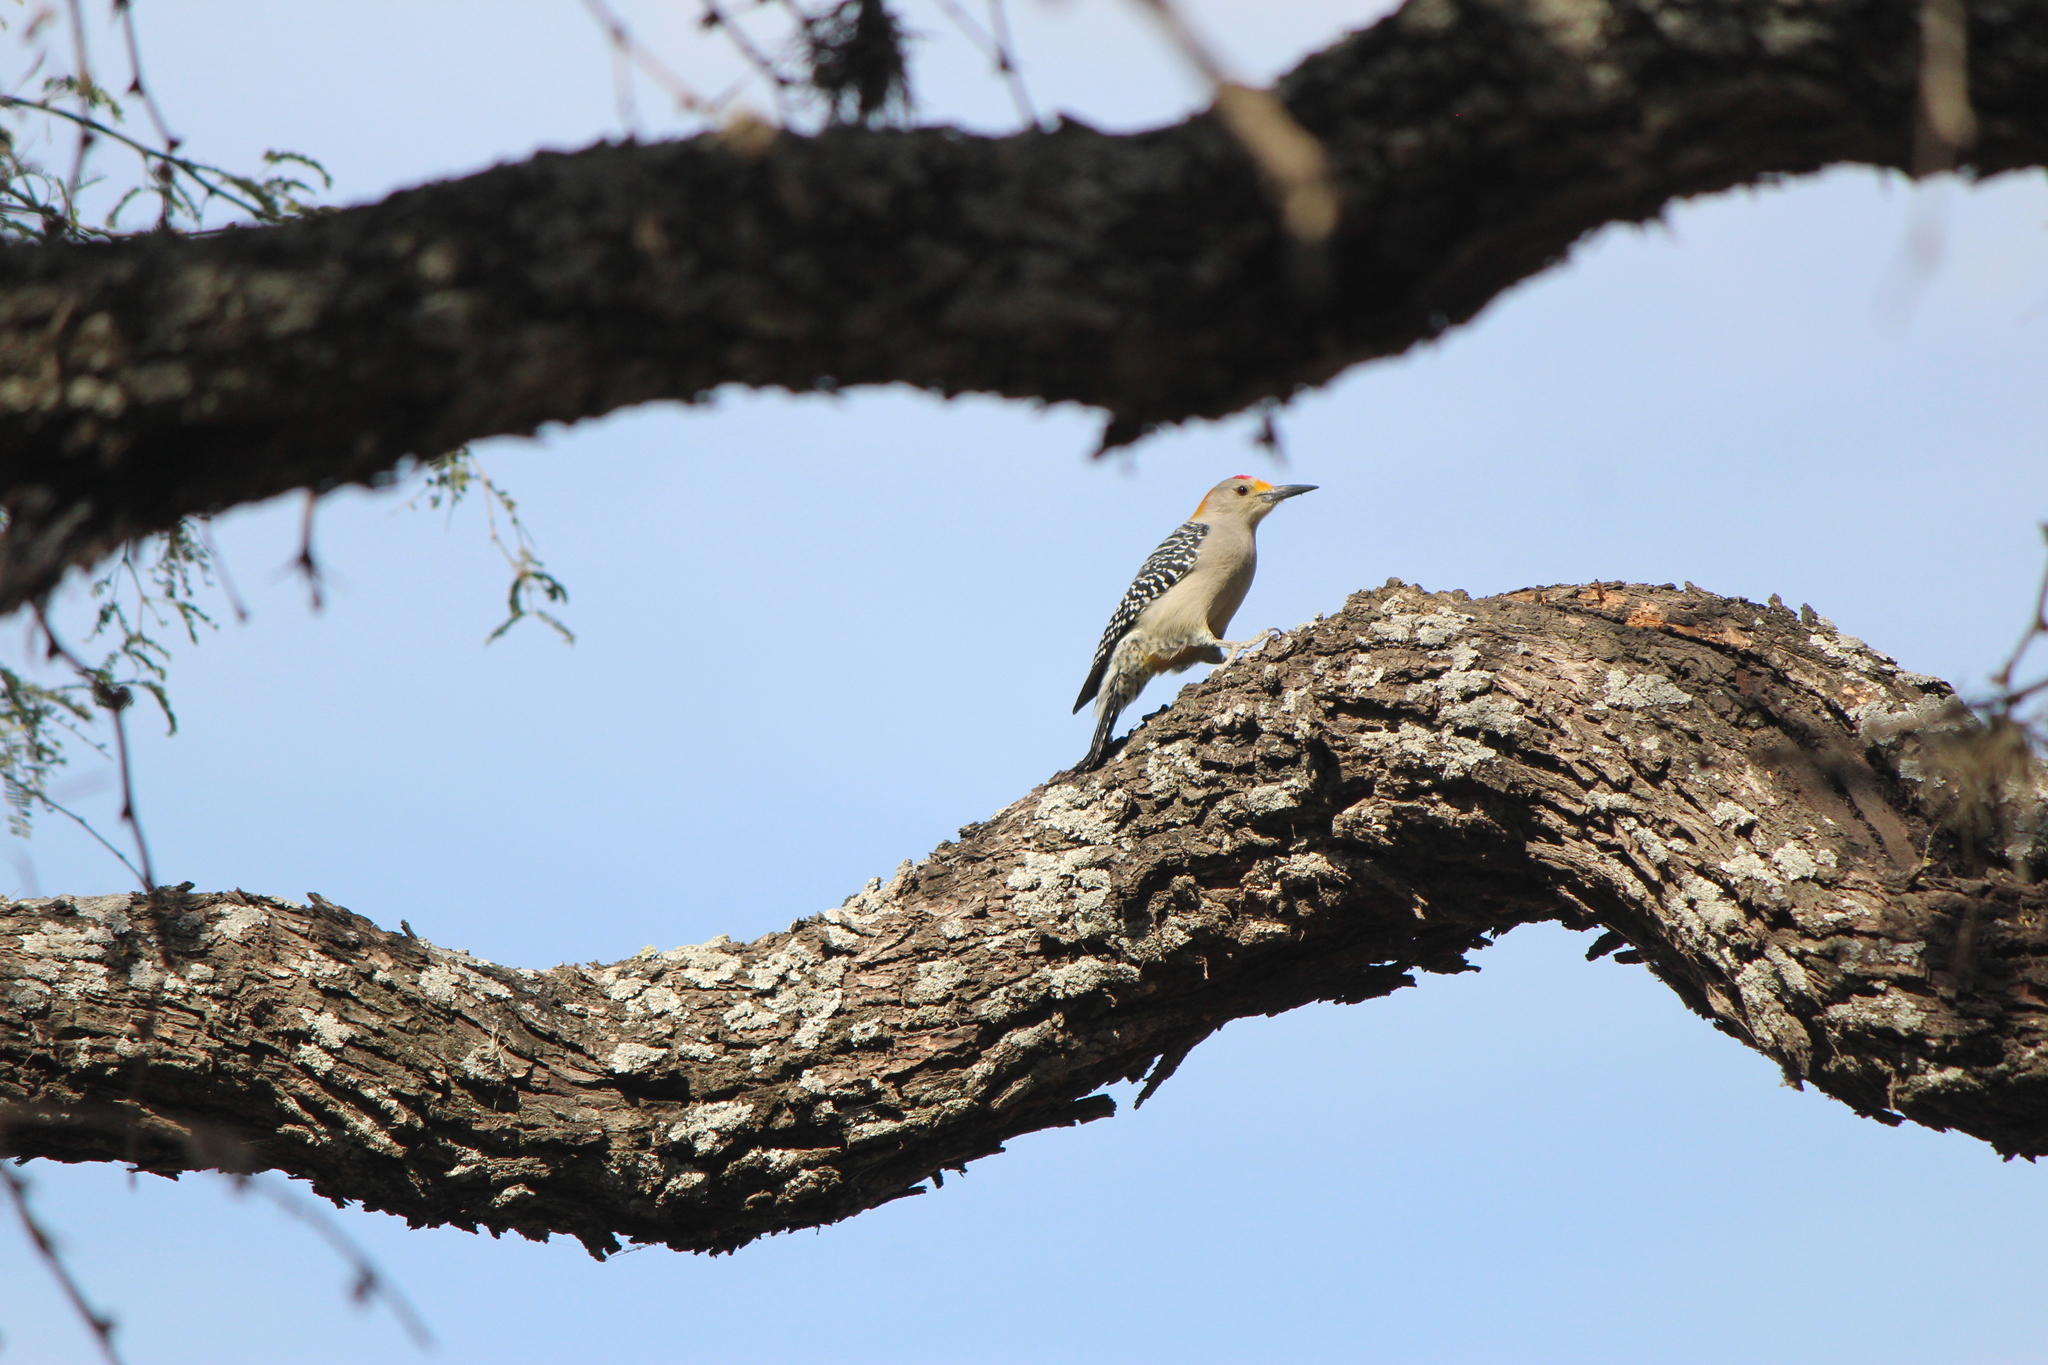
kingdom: Animalia
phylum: Chordata
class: Aves
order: Piciformes
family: Picidae
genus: Melanerpes
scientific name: Melanerpes aurifrons
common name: Golden-fronted woodpecker
